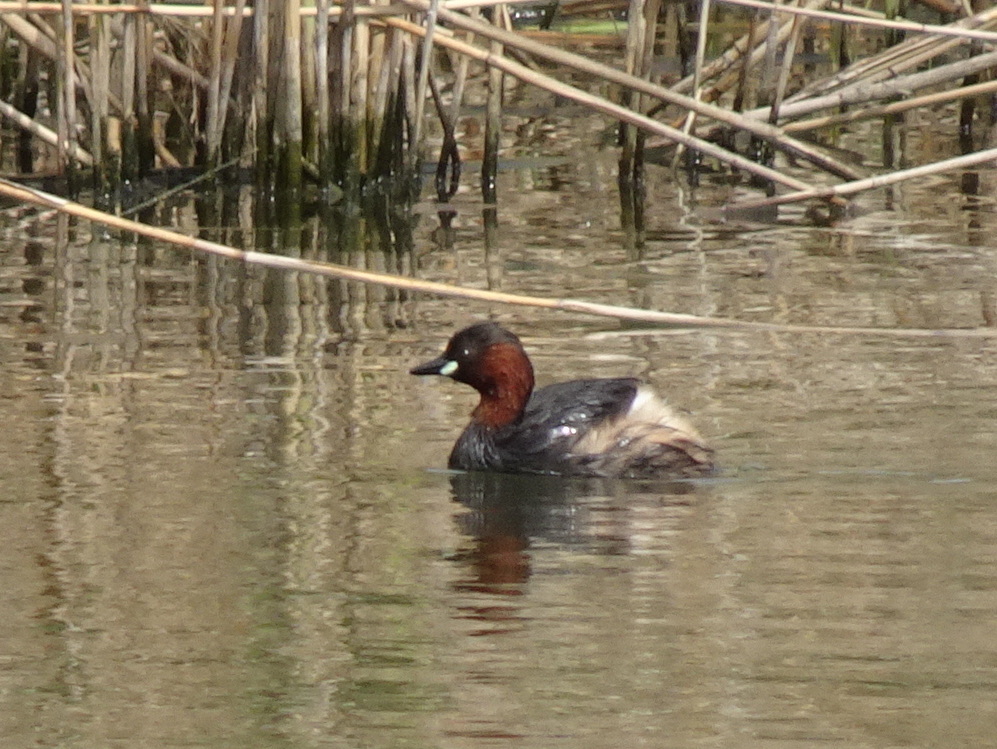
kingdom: Animalia
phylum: Chordata
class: Aves
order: Podicipediformes
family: Podicipedidae
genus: Tachybaptus
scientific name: Tachybaptus ruficollis
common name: Little grebe
